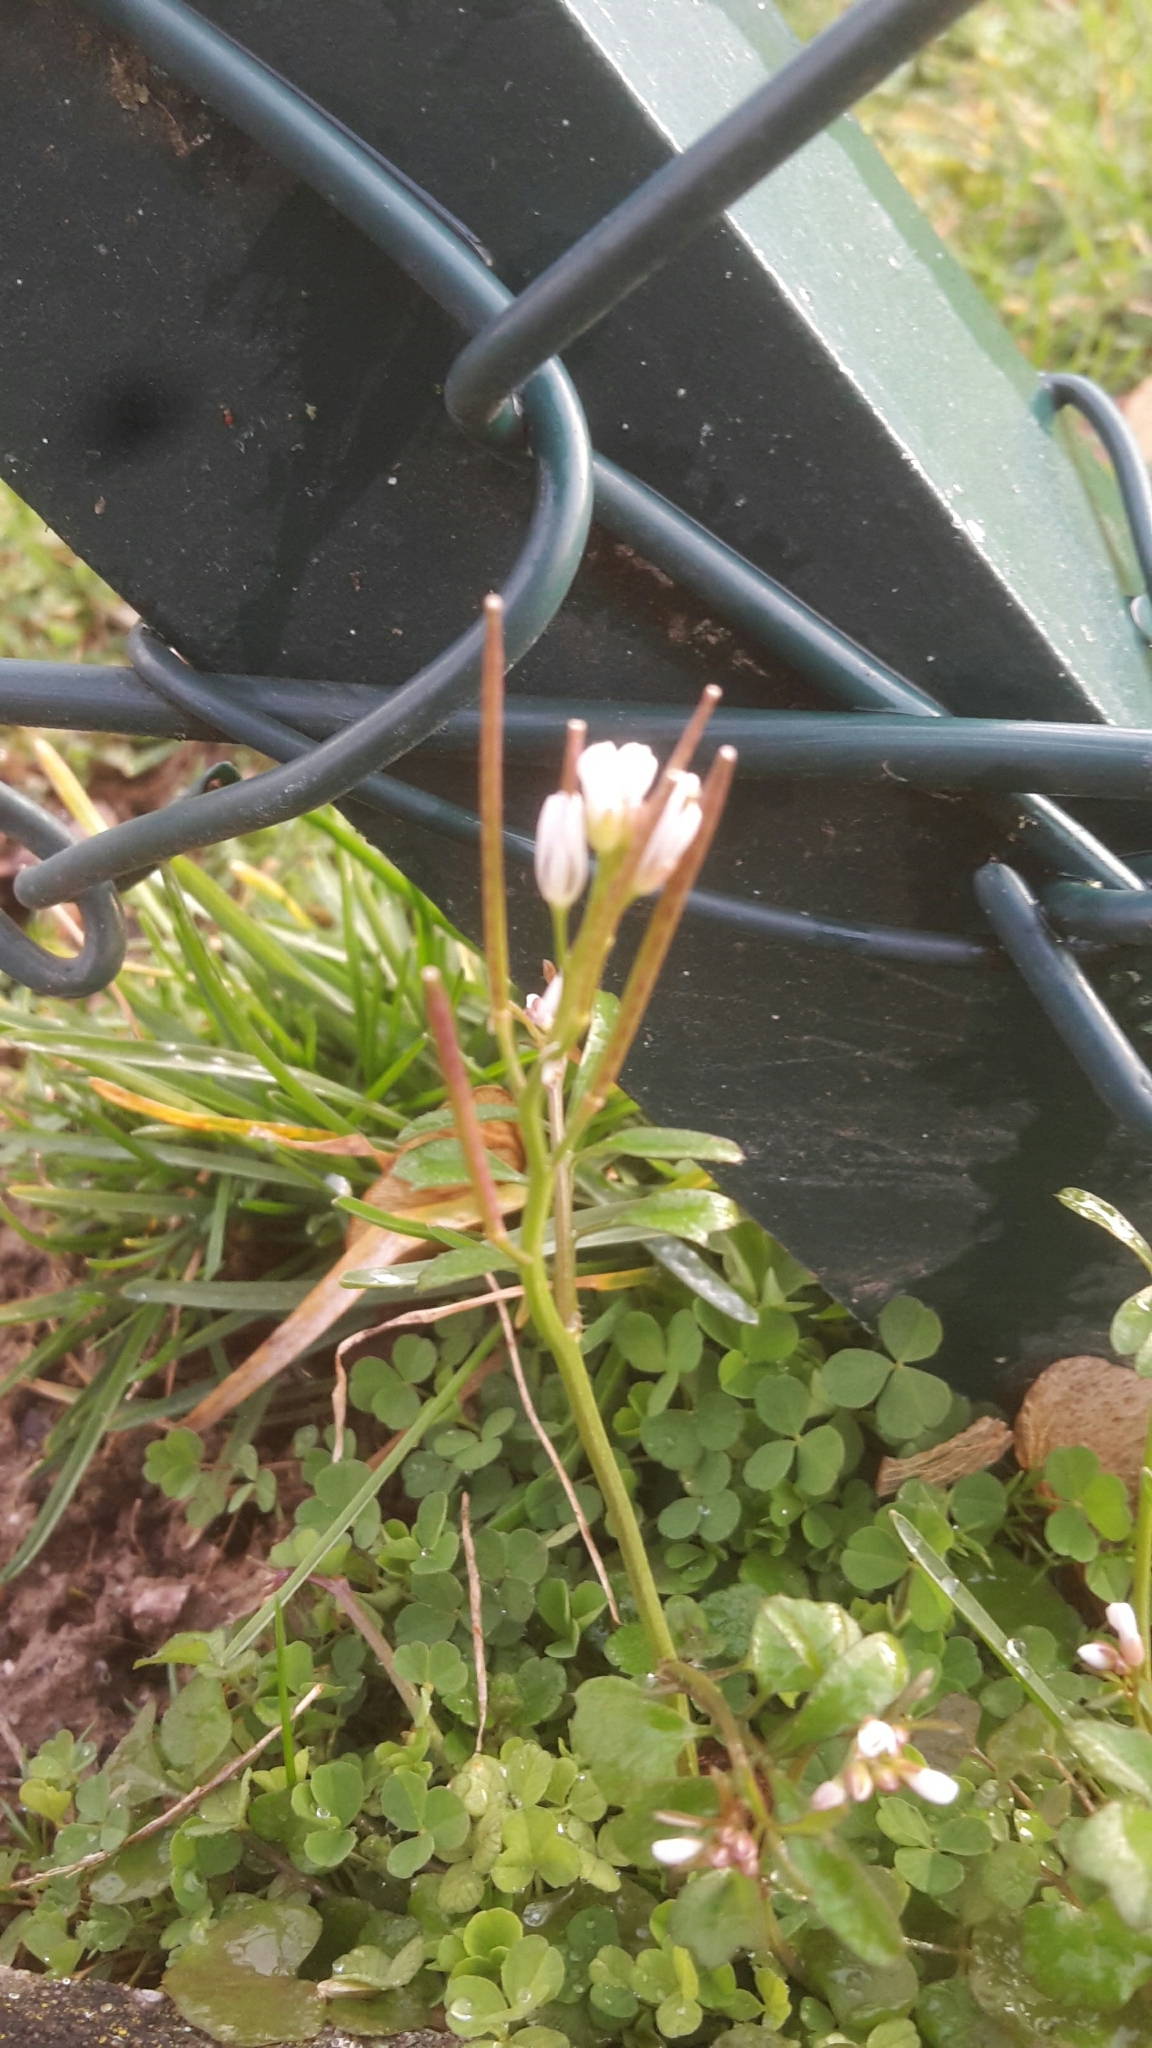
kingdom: Plantae
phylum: Tracheophyta
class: Magnoliopsida
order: Brassicales
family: Brassicaceae
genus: Cardamine
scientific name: Cardamine hirsuta
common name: Hairy bittercress
